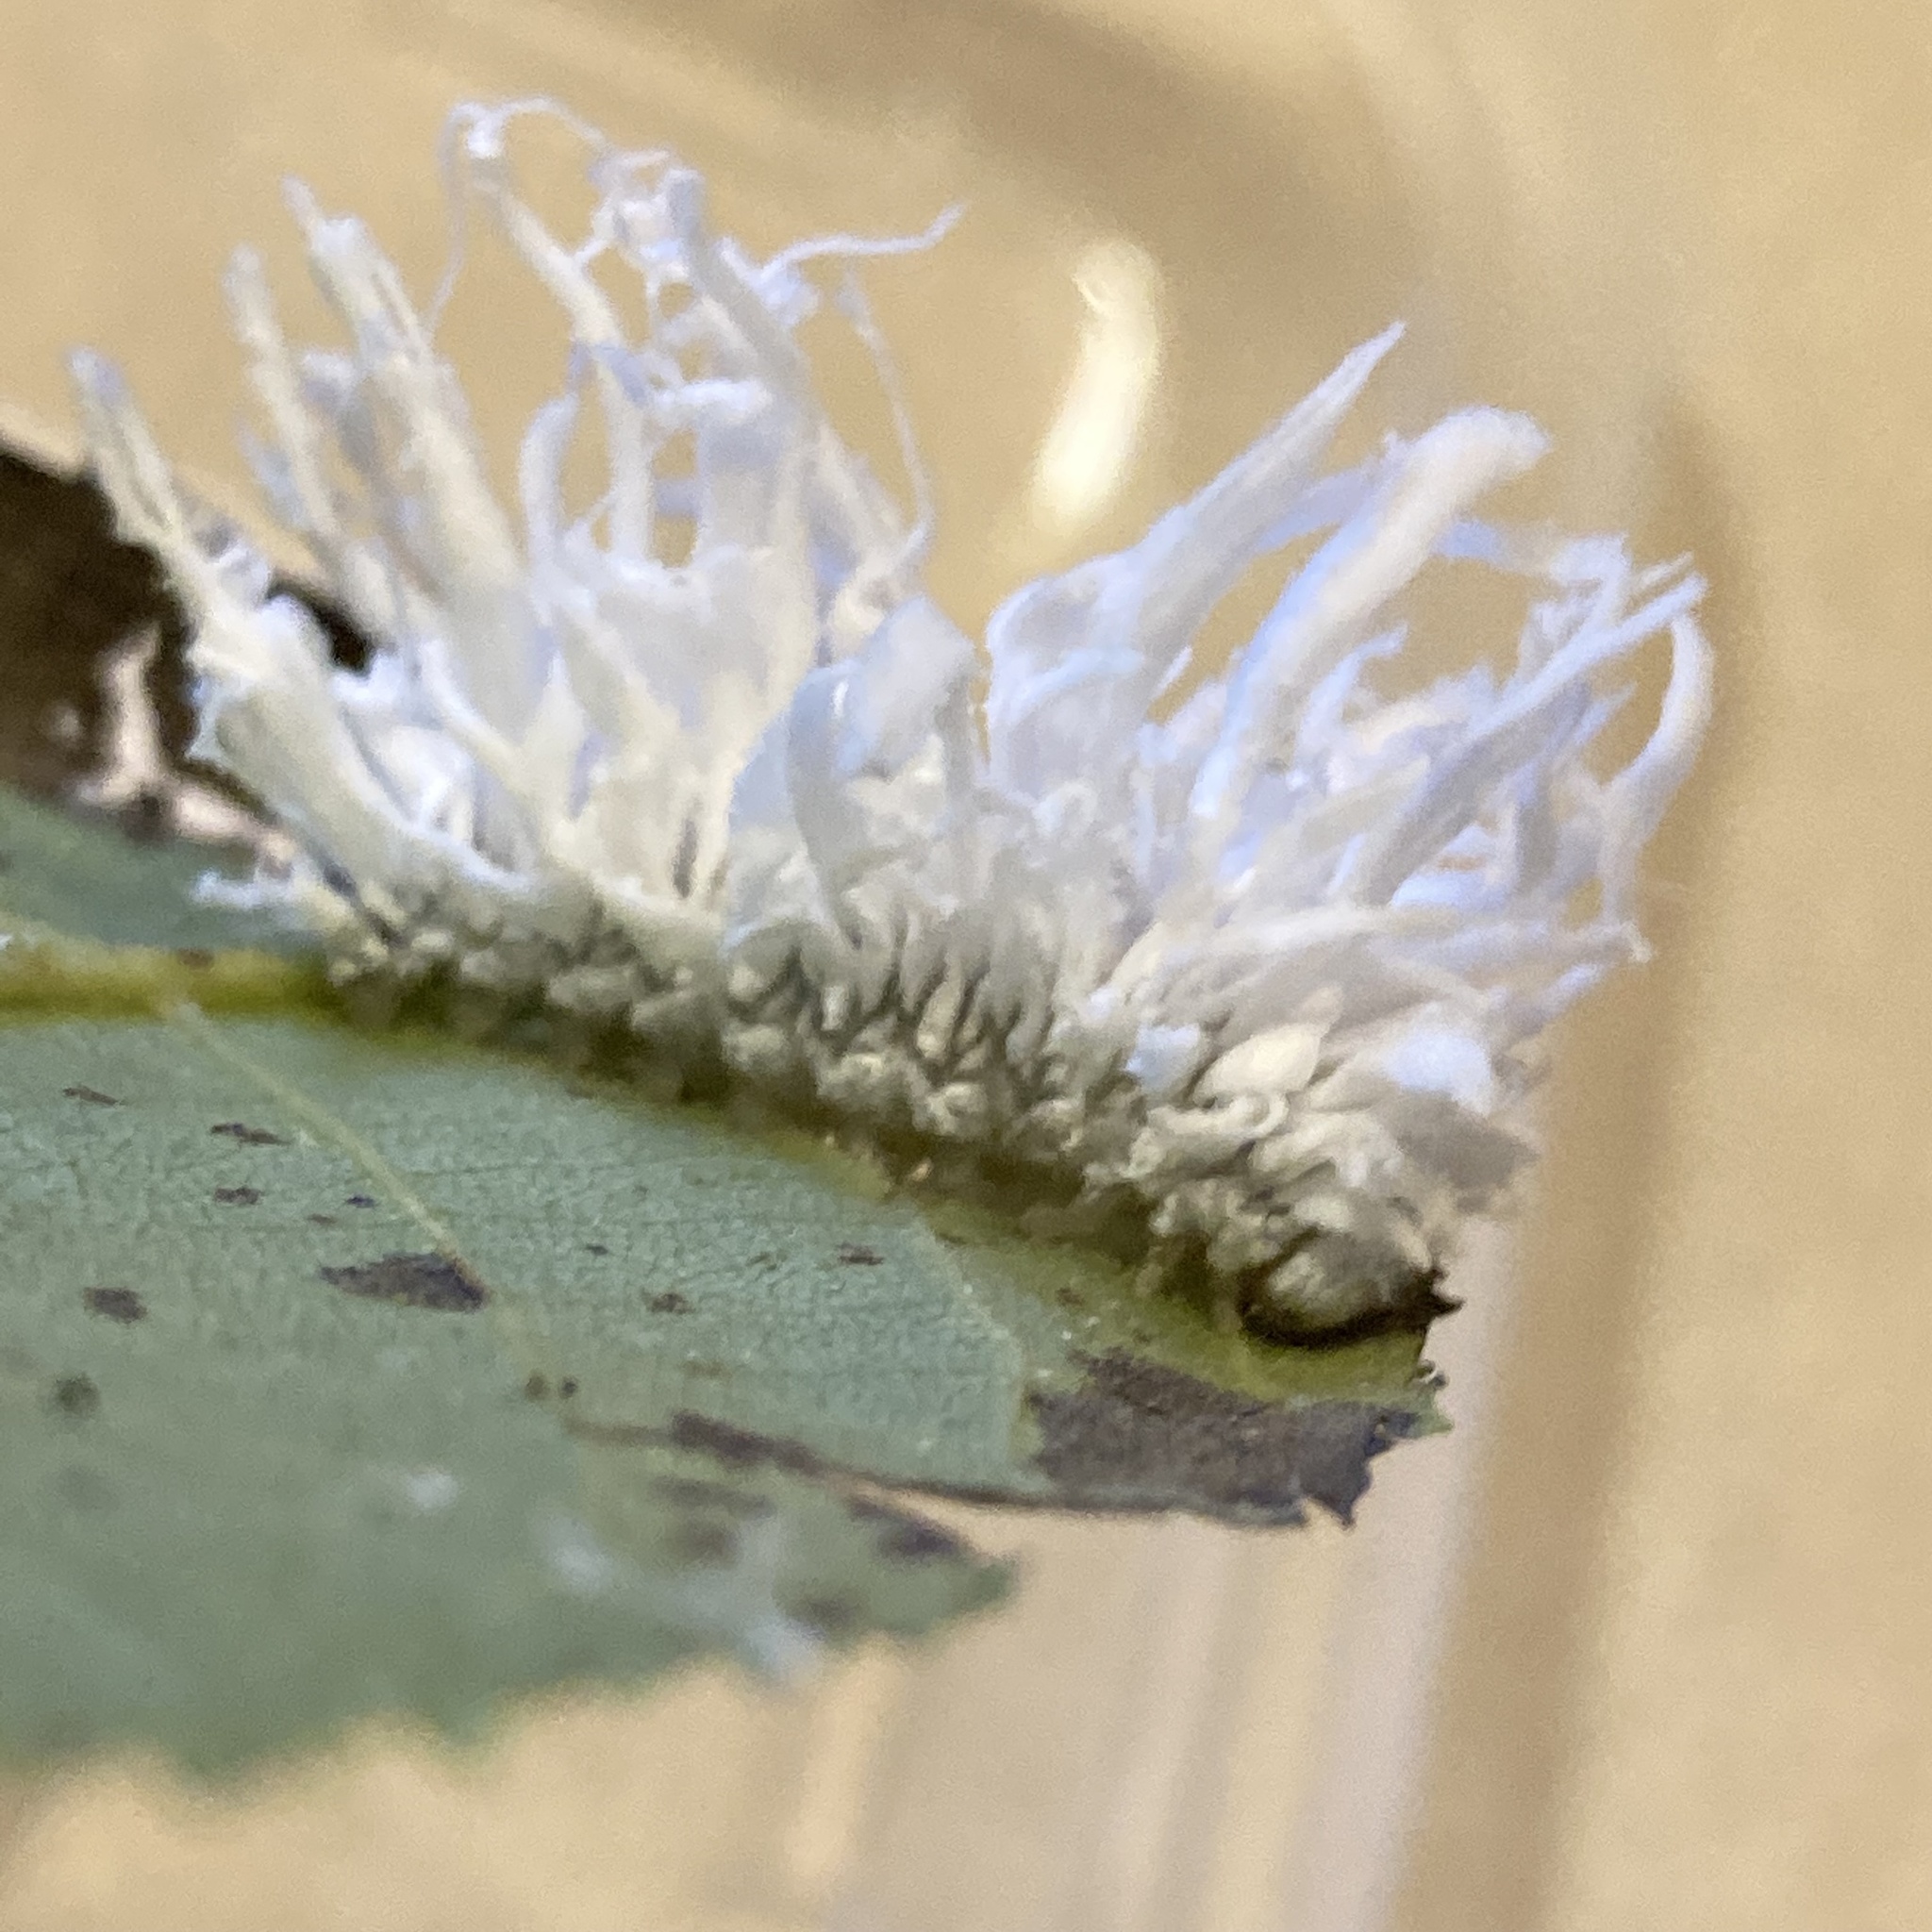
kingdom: Animalia
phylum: Arthropoda
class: Insecta
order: Hymenoptera
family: Tenthredinidae
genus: Eriocampa
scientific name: Eriocampa juglandis
